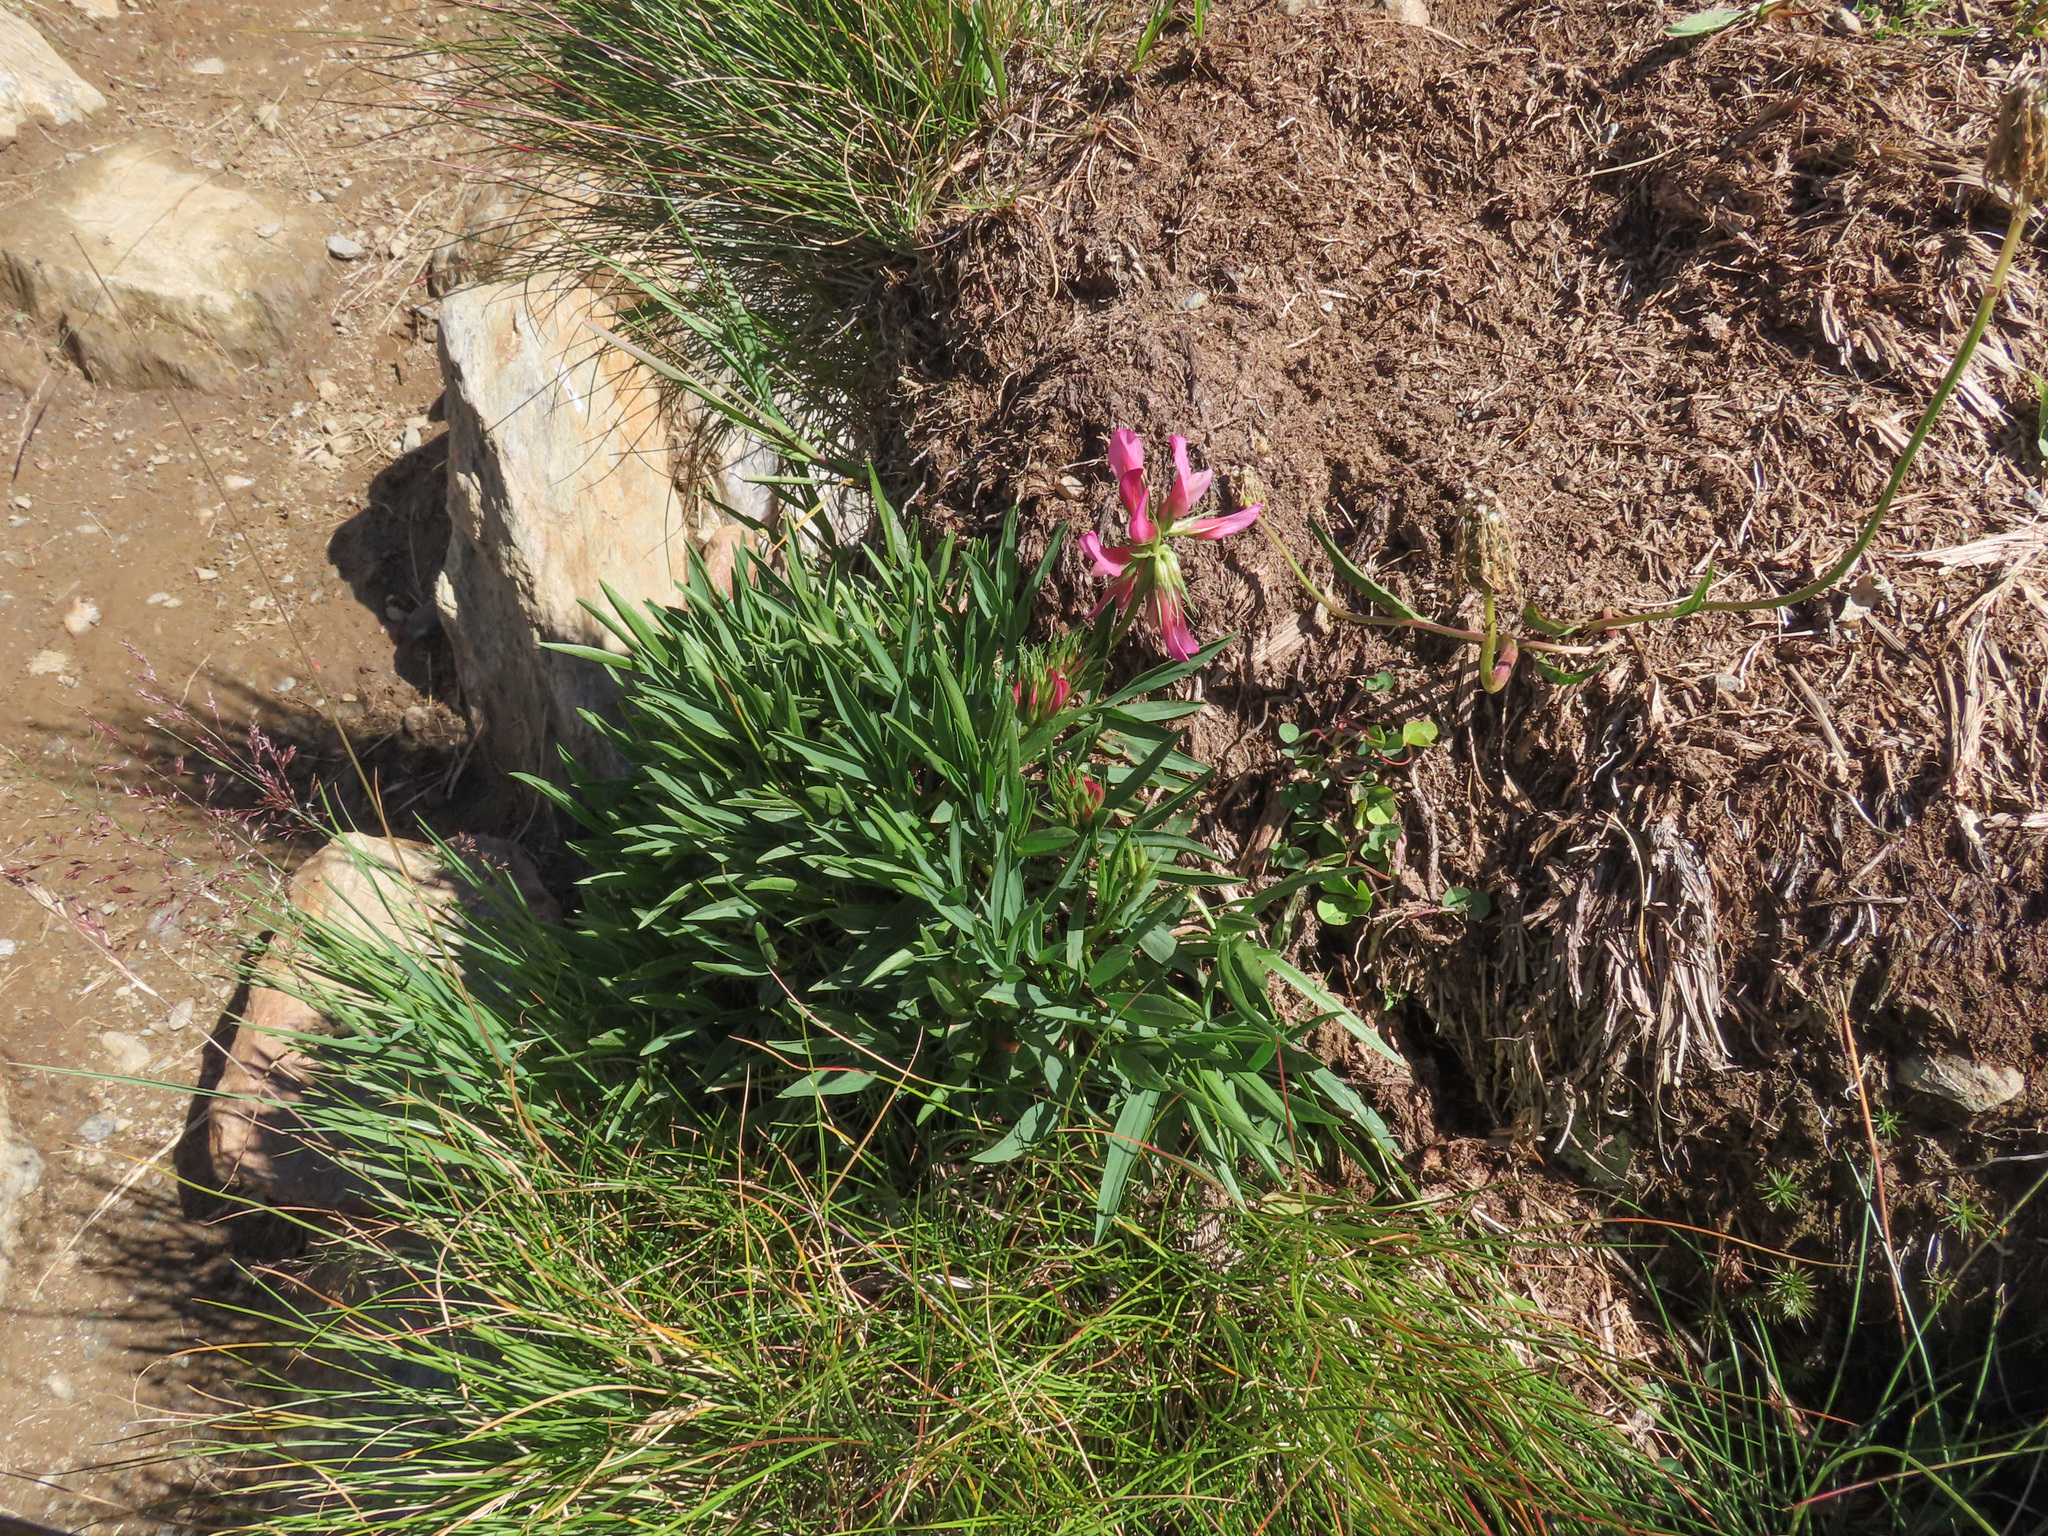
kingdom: Plantae
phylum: Tracheophyta
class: Magnoliopsida
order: Fabales
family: Fabaceae
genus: Trifolium
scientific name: Trifolium alpinum
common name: Alpine clover
